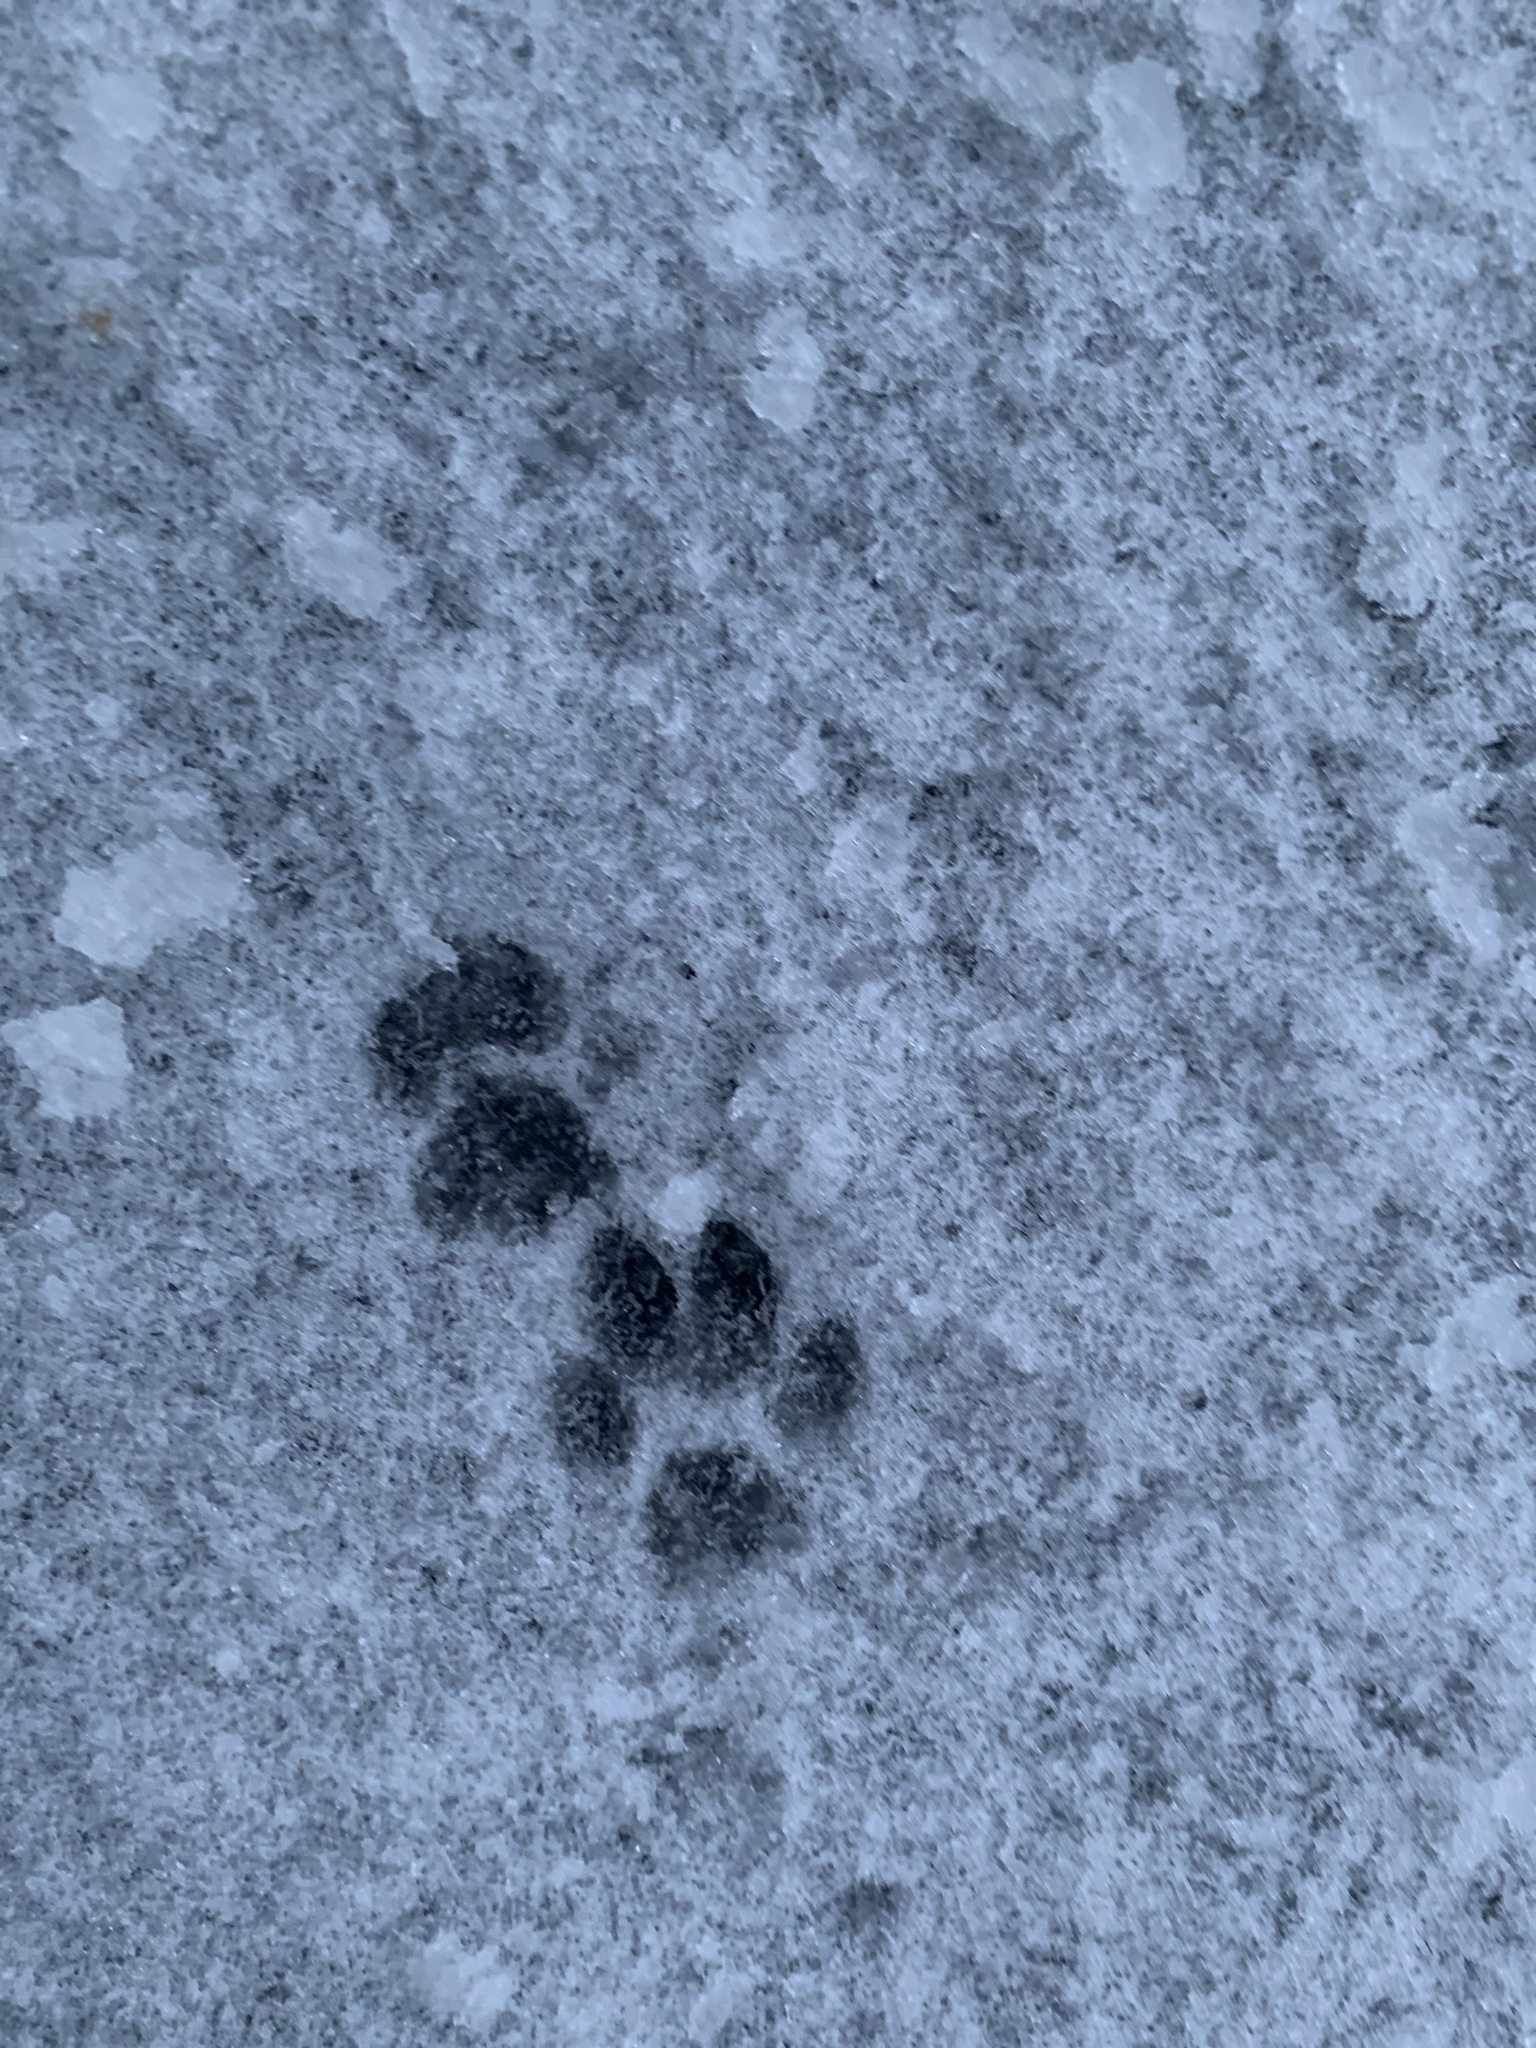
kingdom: Animalia
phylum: Chordata
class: Mammalia
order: Carnivora
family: Felidae
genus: Felis
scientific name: Felis catus
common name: Domestic cat
